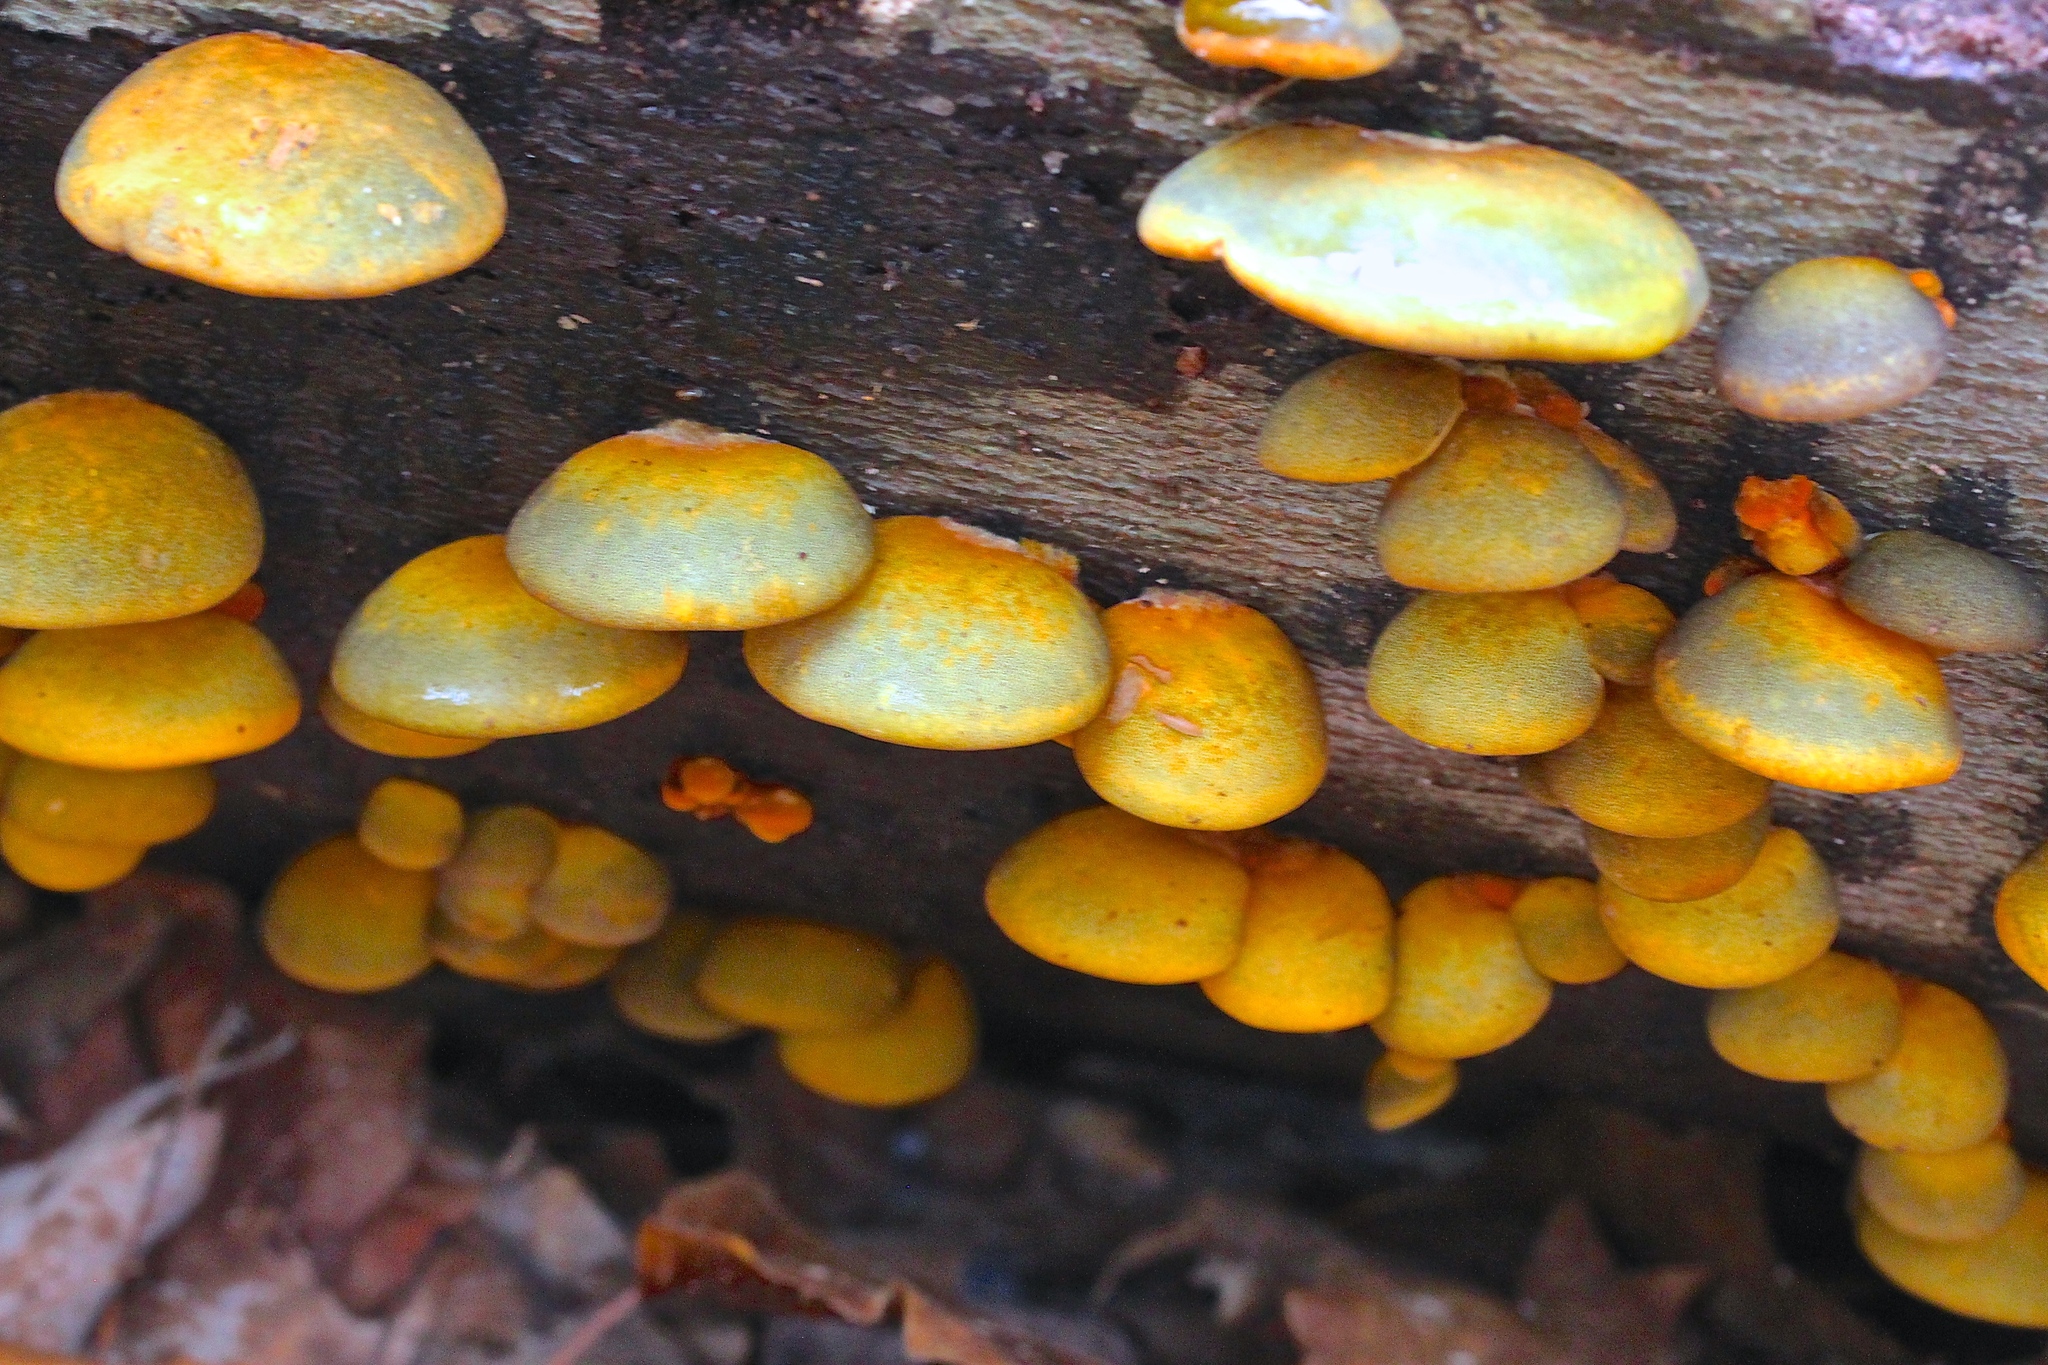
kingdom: Fungi
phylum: Basidiomycota
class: Agaricomycetes
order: Agaricales
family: Sarcomyxaceae
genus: Sarcomyxa
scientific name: Sarcomyxa serotina
